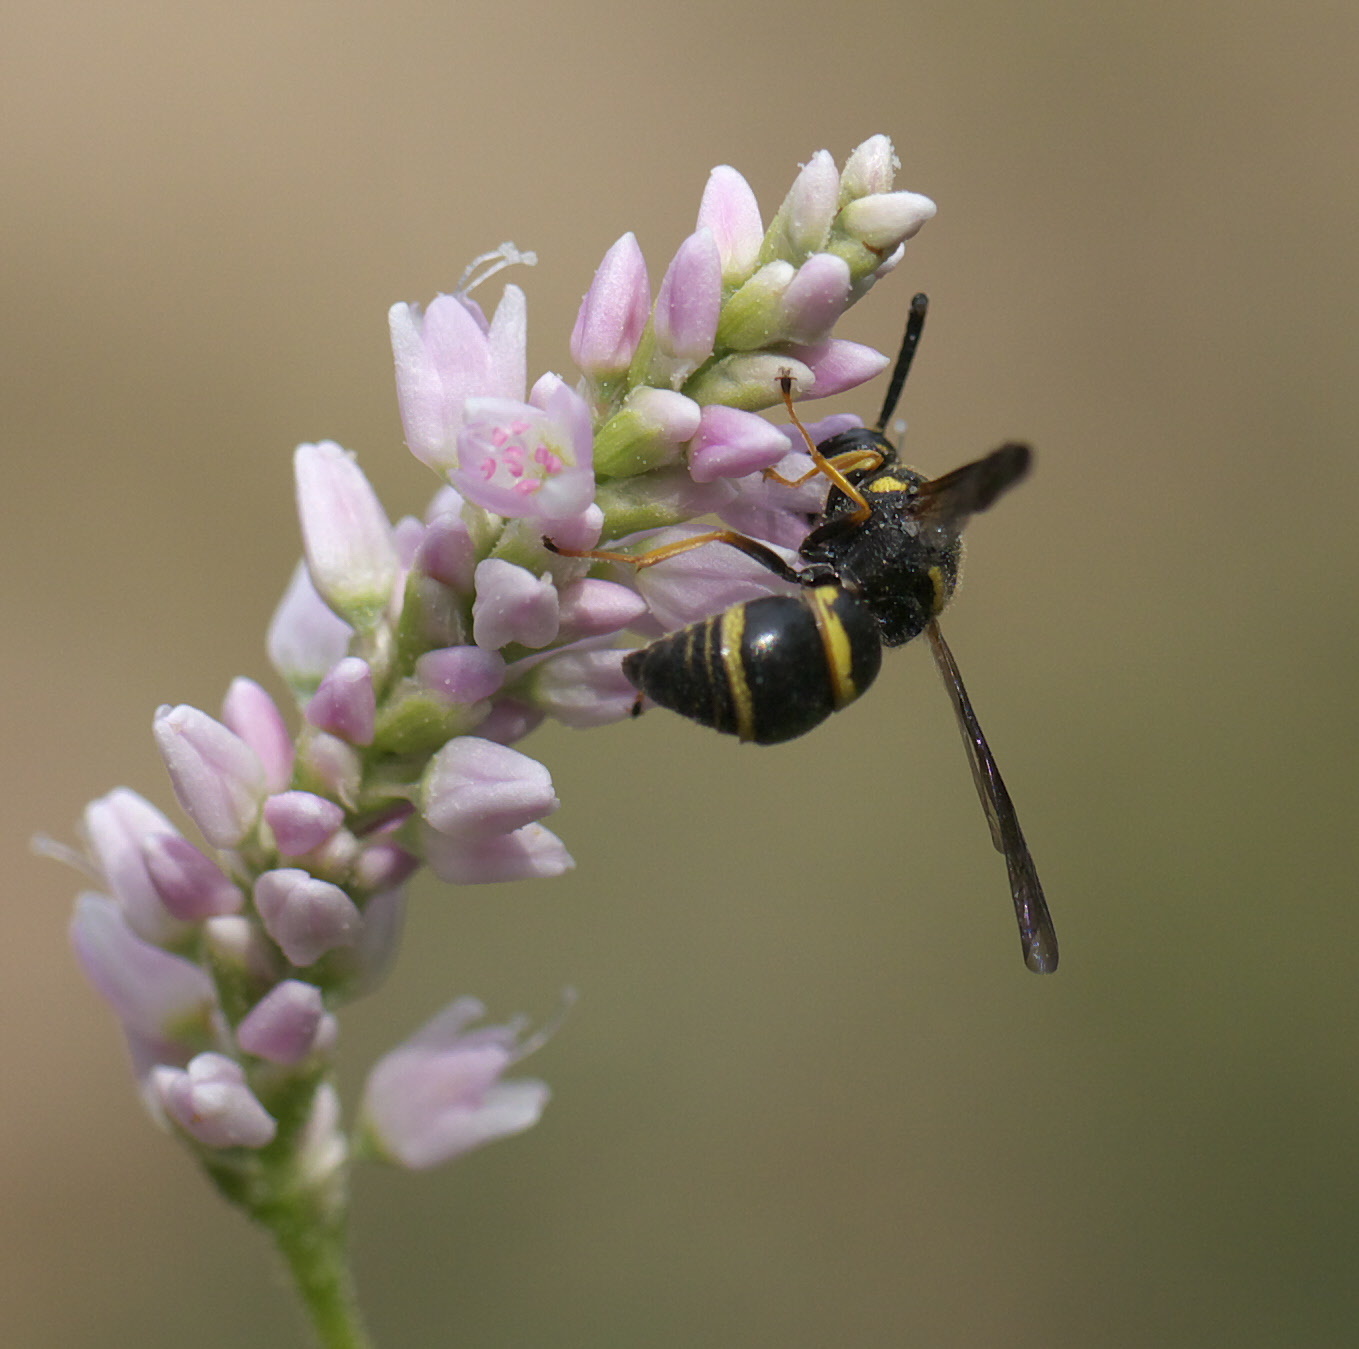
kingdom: Animalia
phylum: Arthropoda
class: Insecta
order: Hymenoptera
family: Eumenidae
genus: Euodynerus
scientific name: Euodynerus foraminatus
